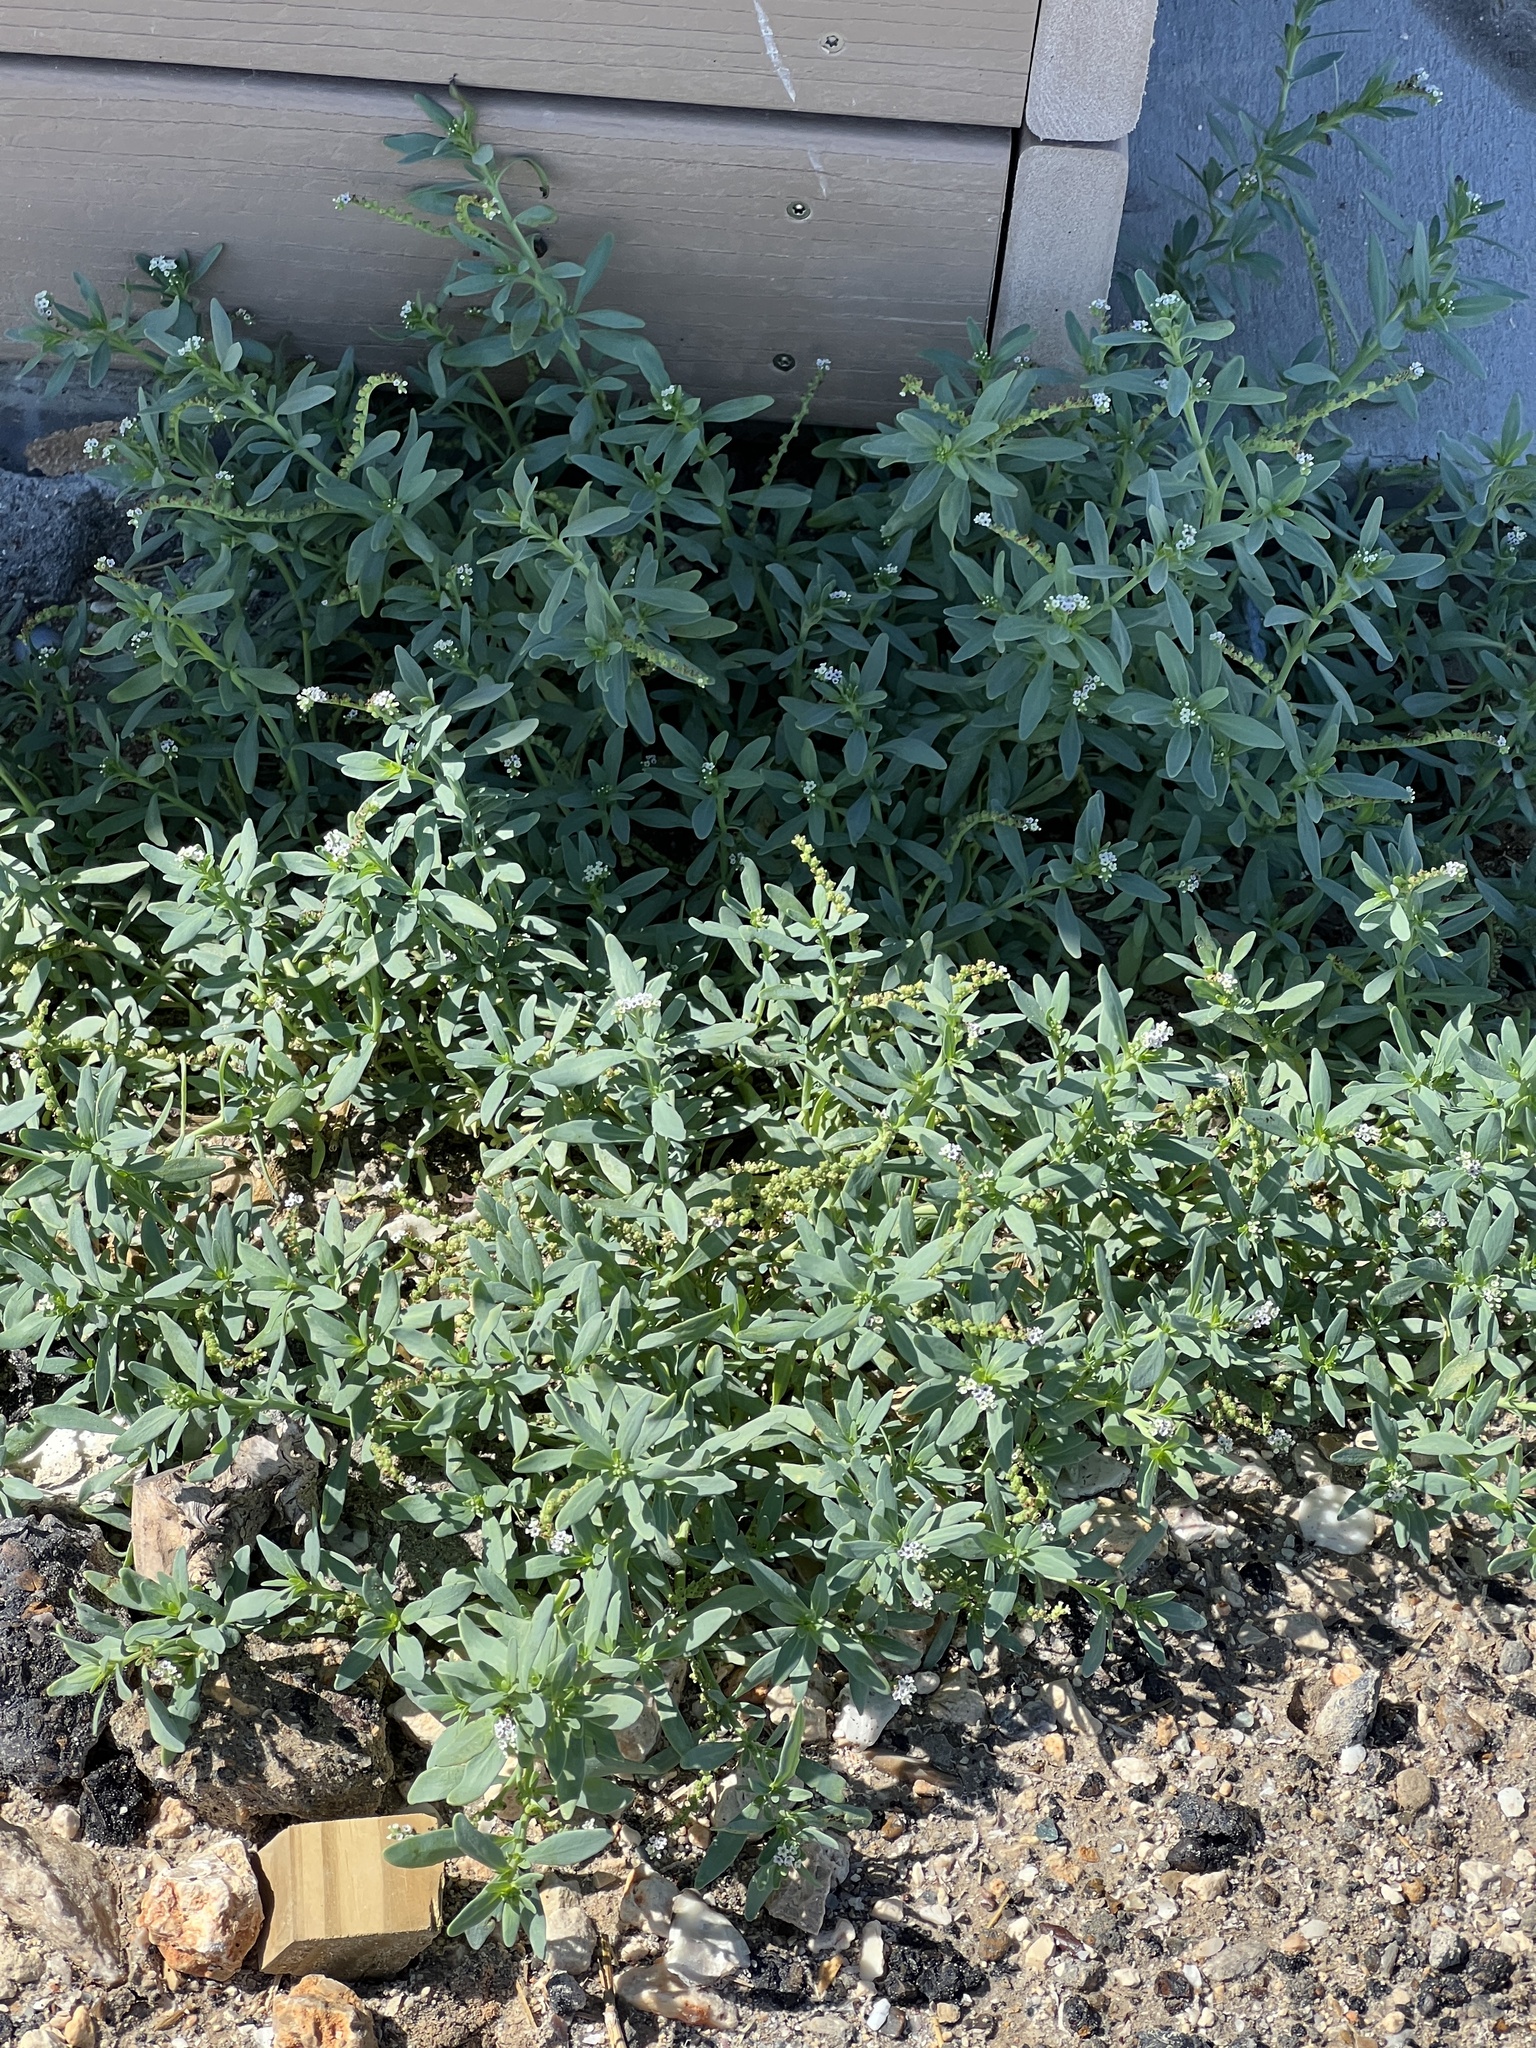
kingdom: Plantae
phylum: Tracheophyta
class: Magnoliopsida
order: Boraginales
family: Heliotropiaceae
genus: Heliotropium
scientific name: Heliotropium curassavicum
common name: Seaside heliotrope
